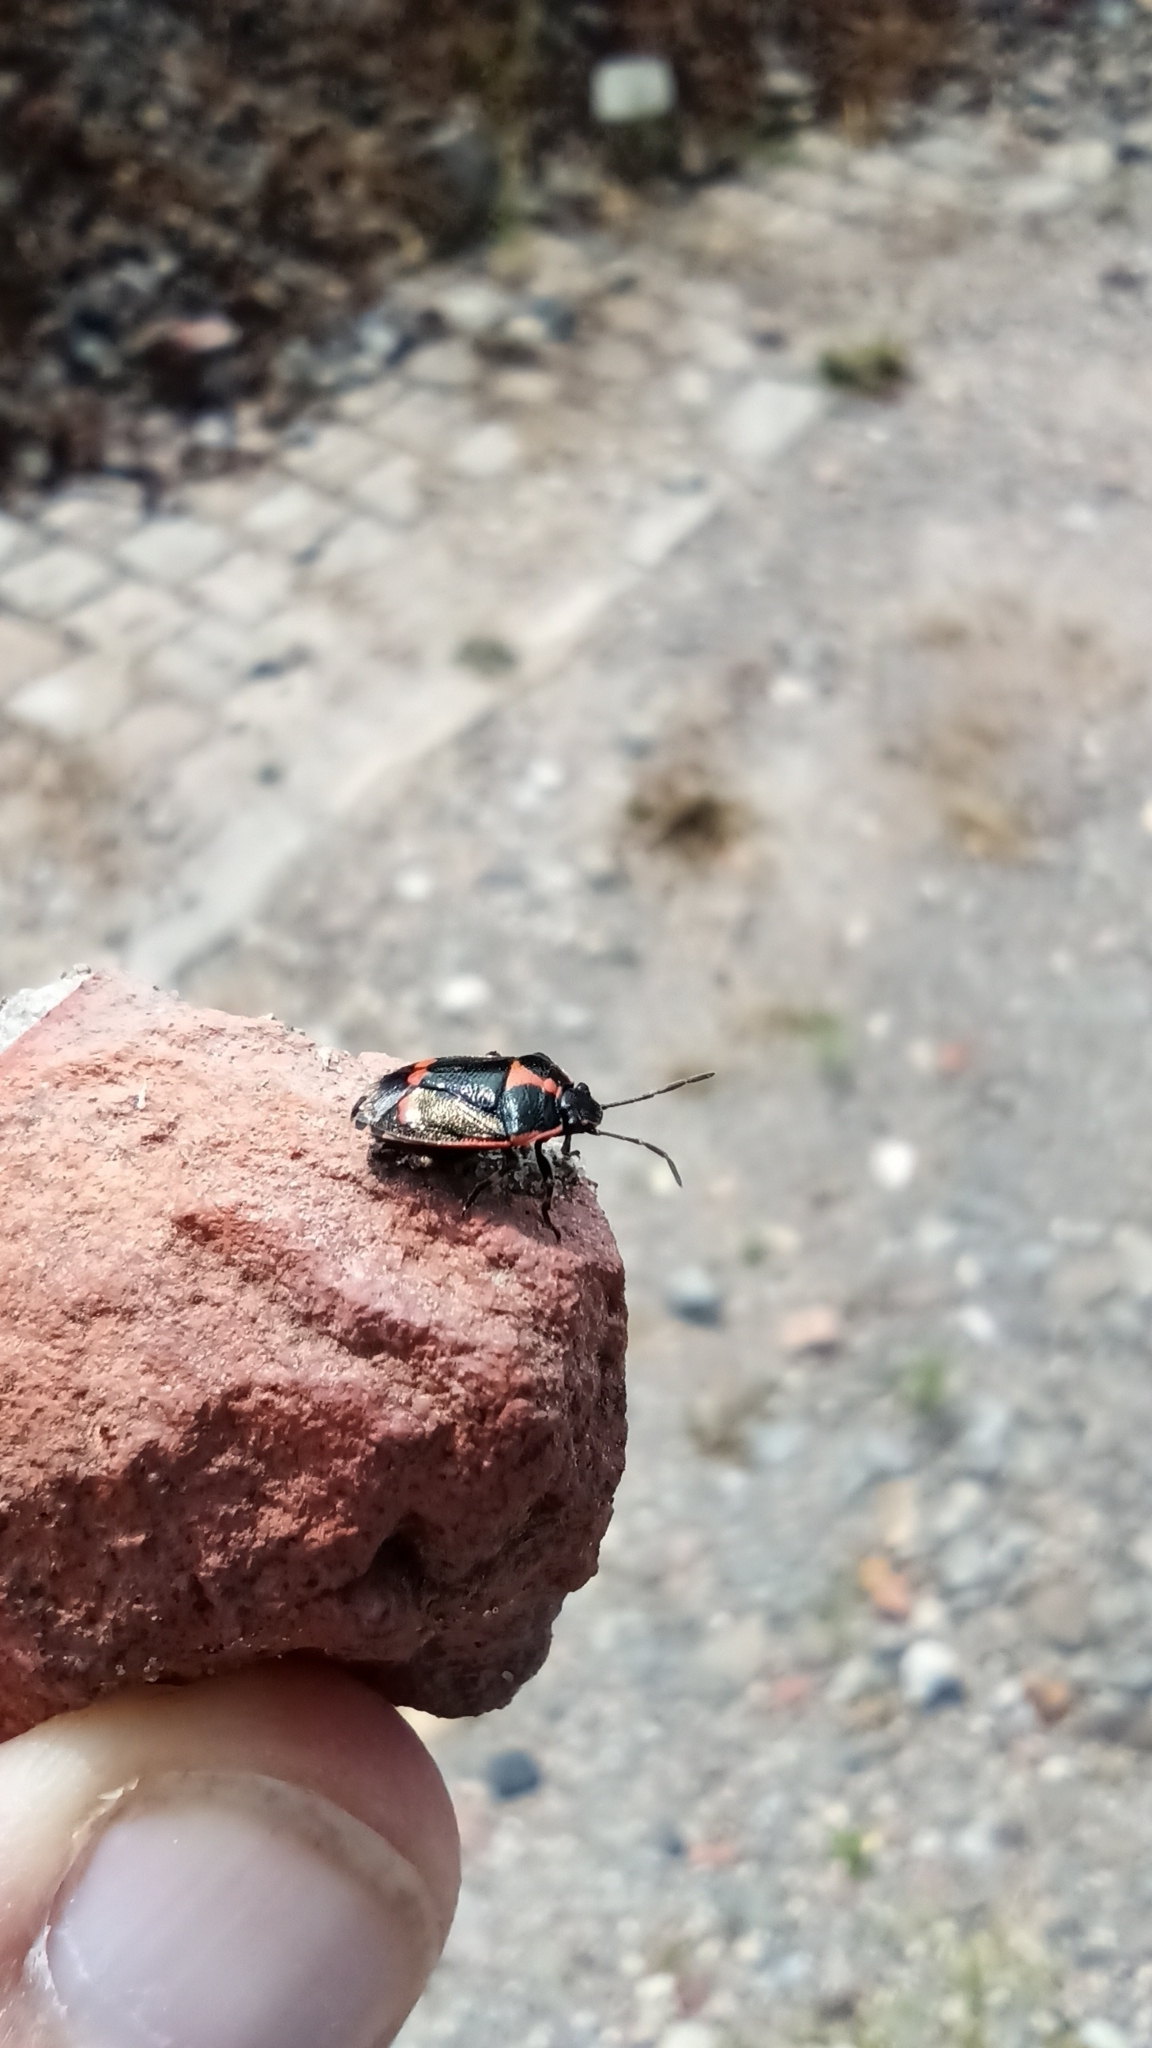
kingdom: Animalia
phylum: Arthropoda
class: Insecta
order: Hemiptera
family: Pentatomidae
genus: Eurydema
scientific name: Eurydema oleracea
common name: Cabbage bug
